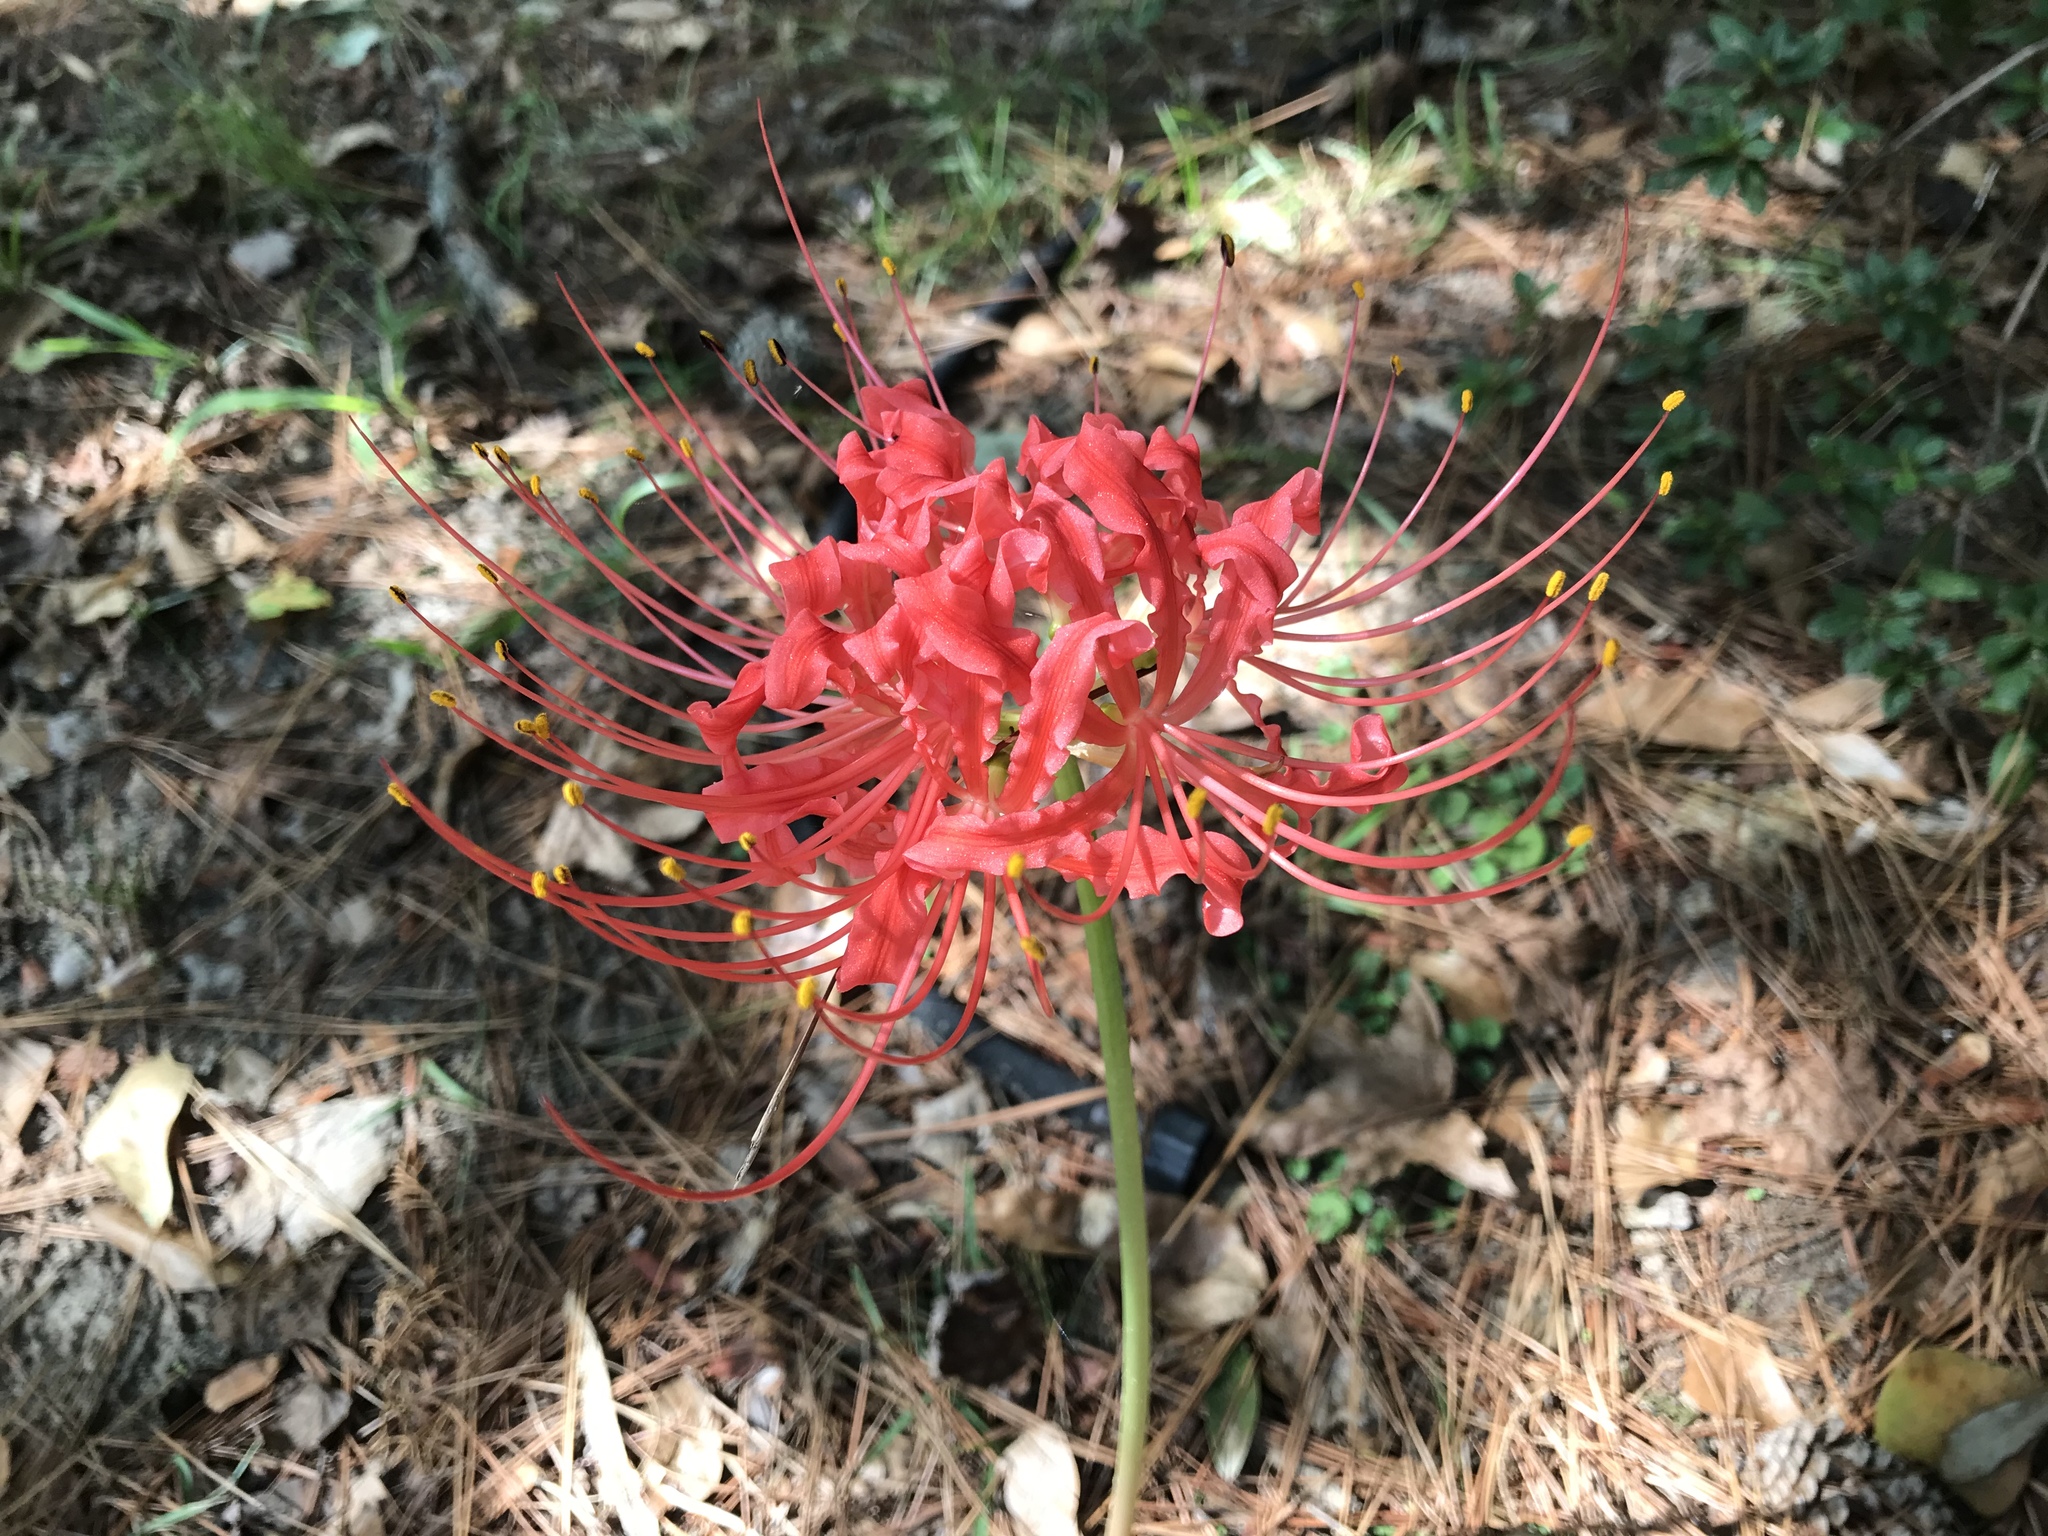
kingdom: Plantae
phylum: Tracheophyta
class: Liliopsida
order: Asparagales
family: Amaryllidaceae
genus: Lycoris
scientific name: Lycoris radiata
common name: Red spider lily
